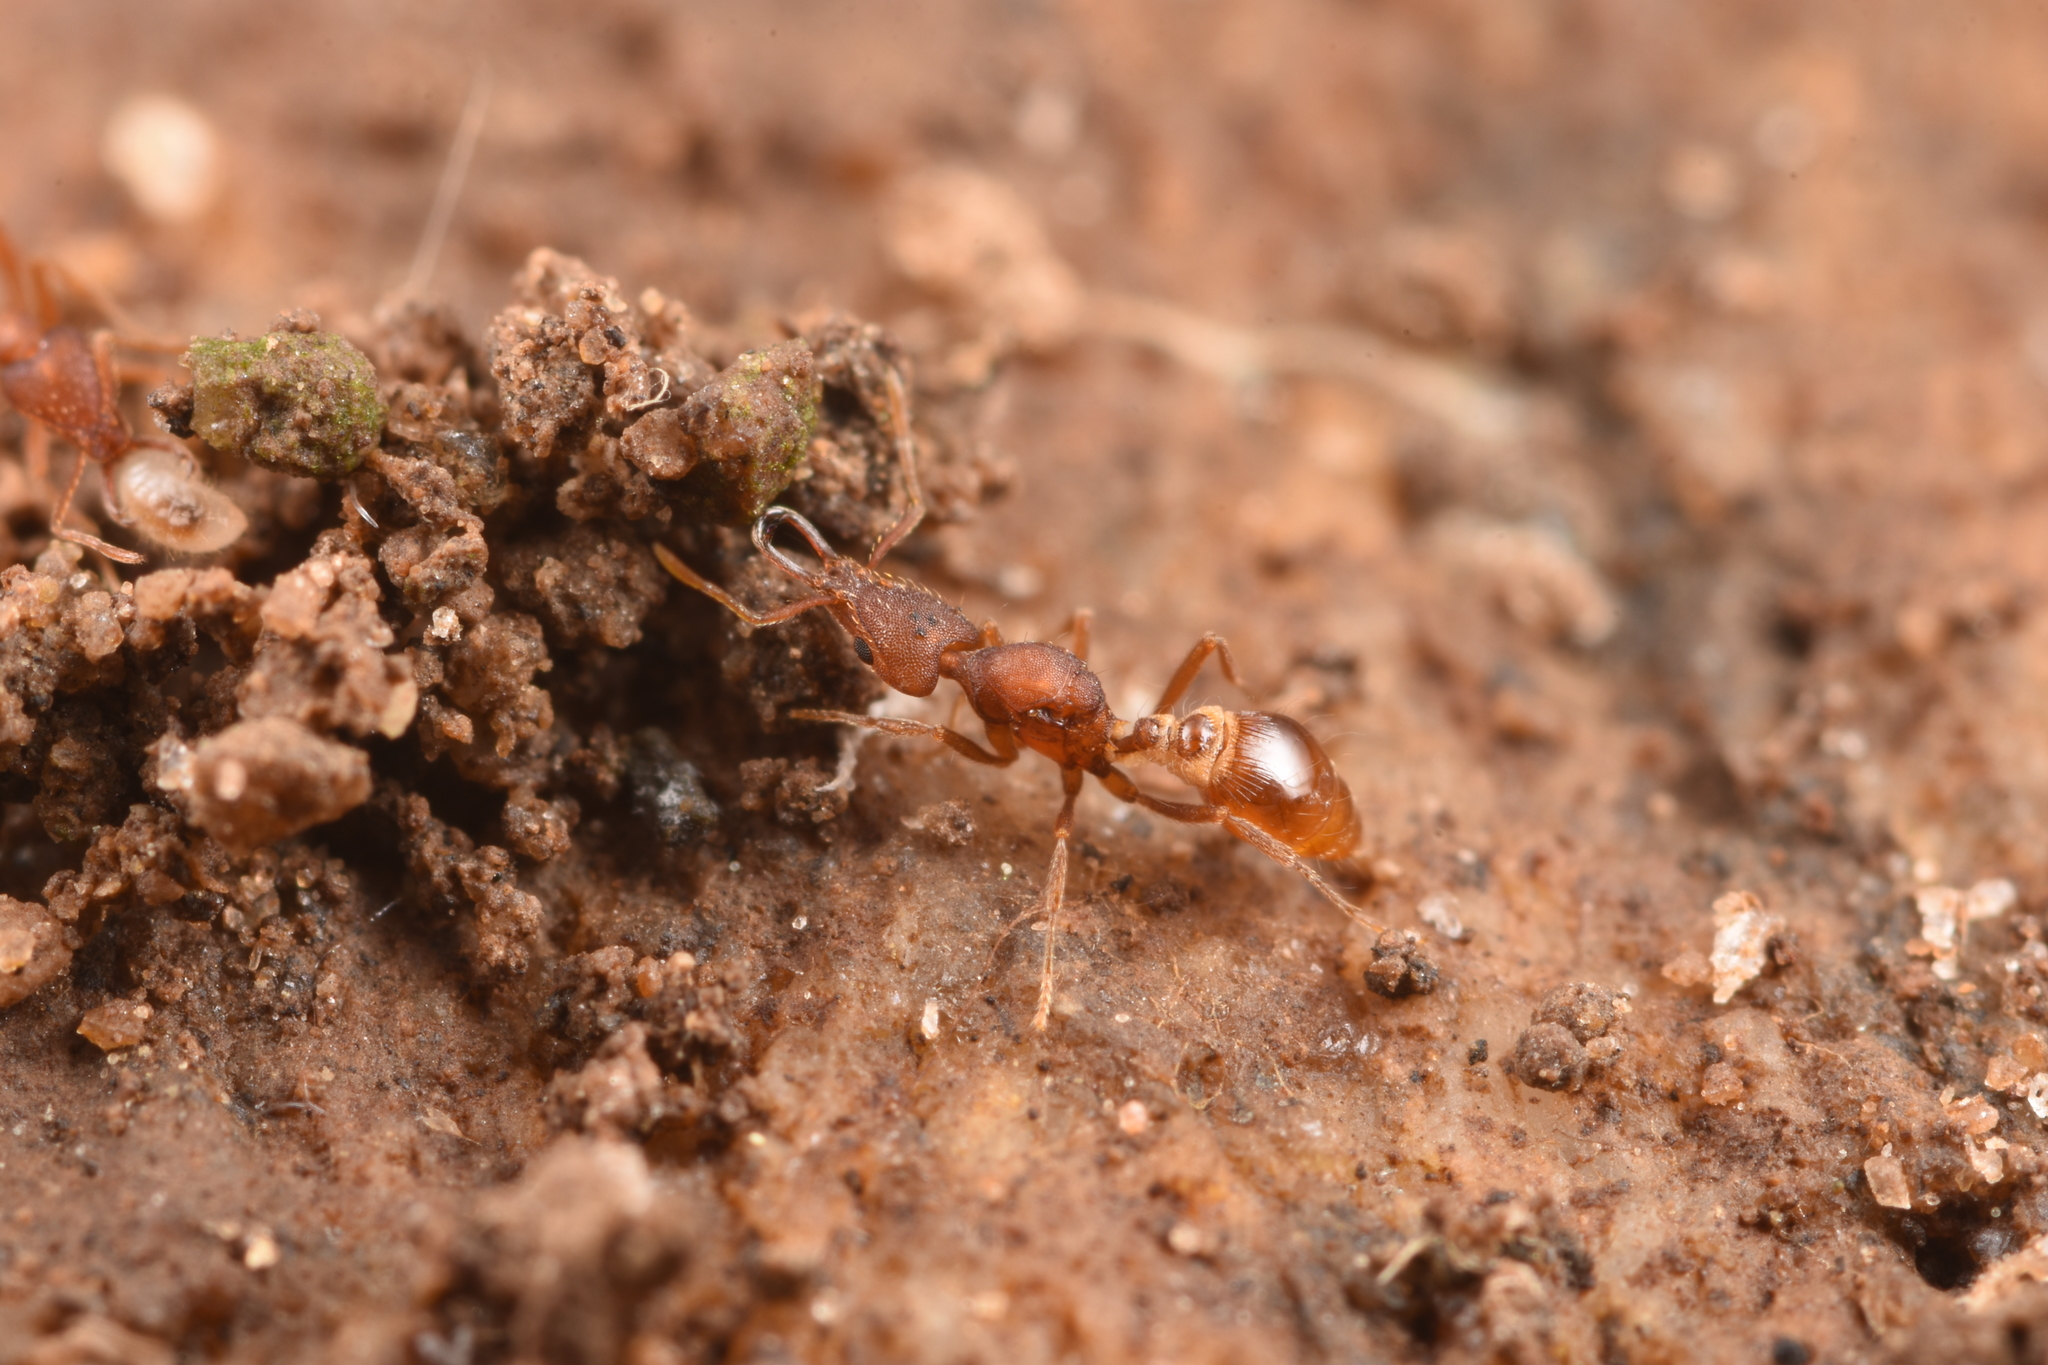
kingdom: Animalia
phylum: Arthropoda
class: Insecta
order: Hymenoptera
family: Formicidae
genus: Strumigenys
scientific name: Strumigenys solifontis
